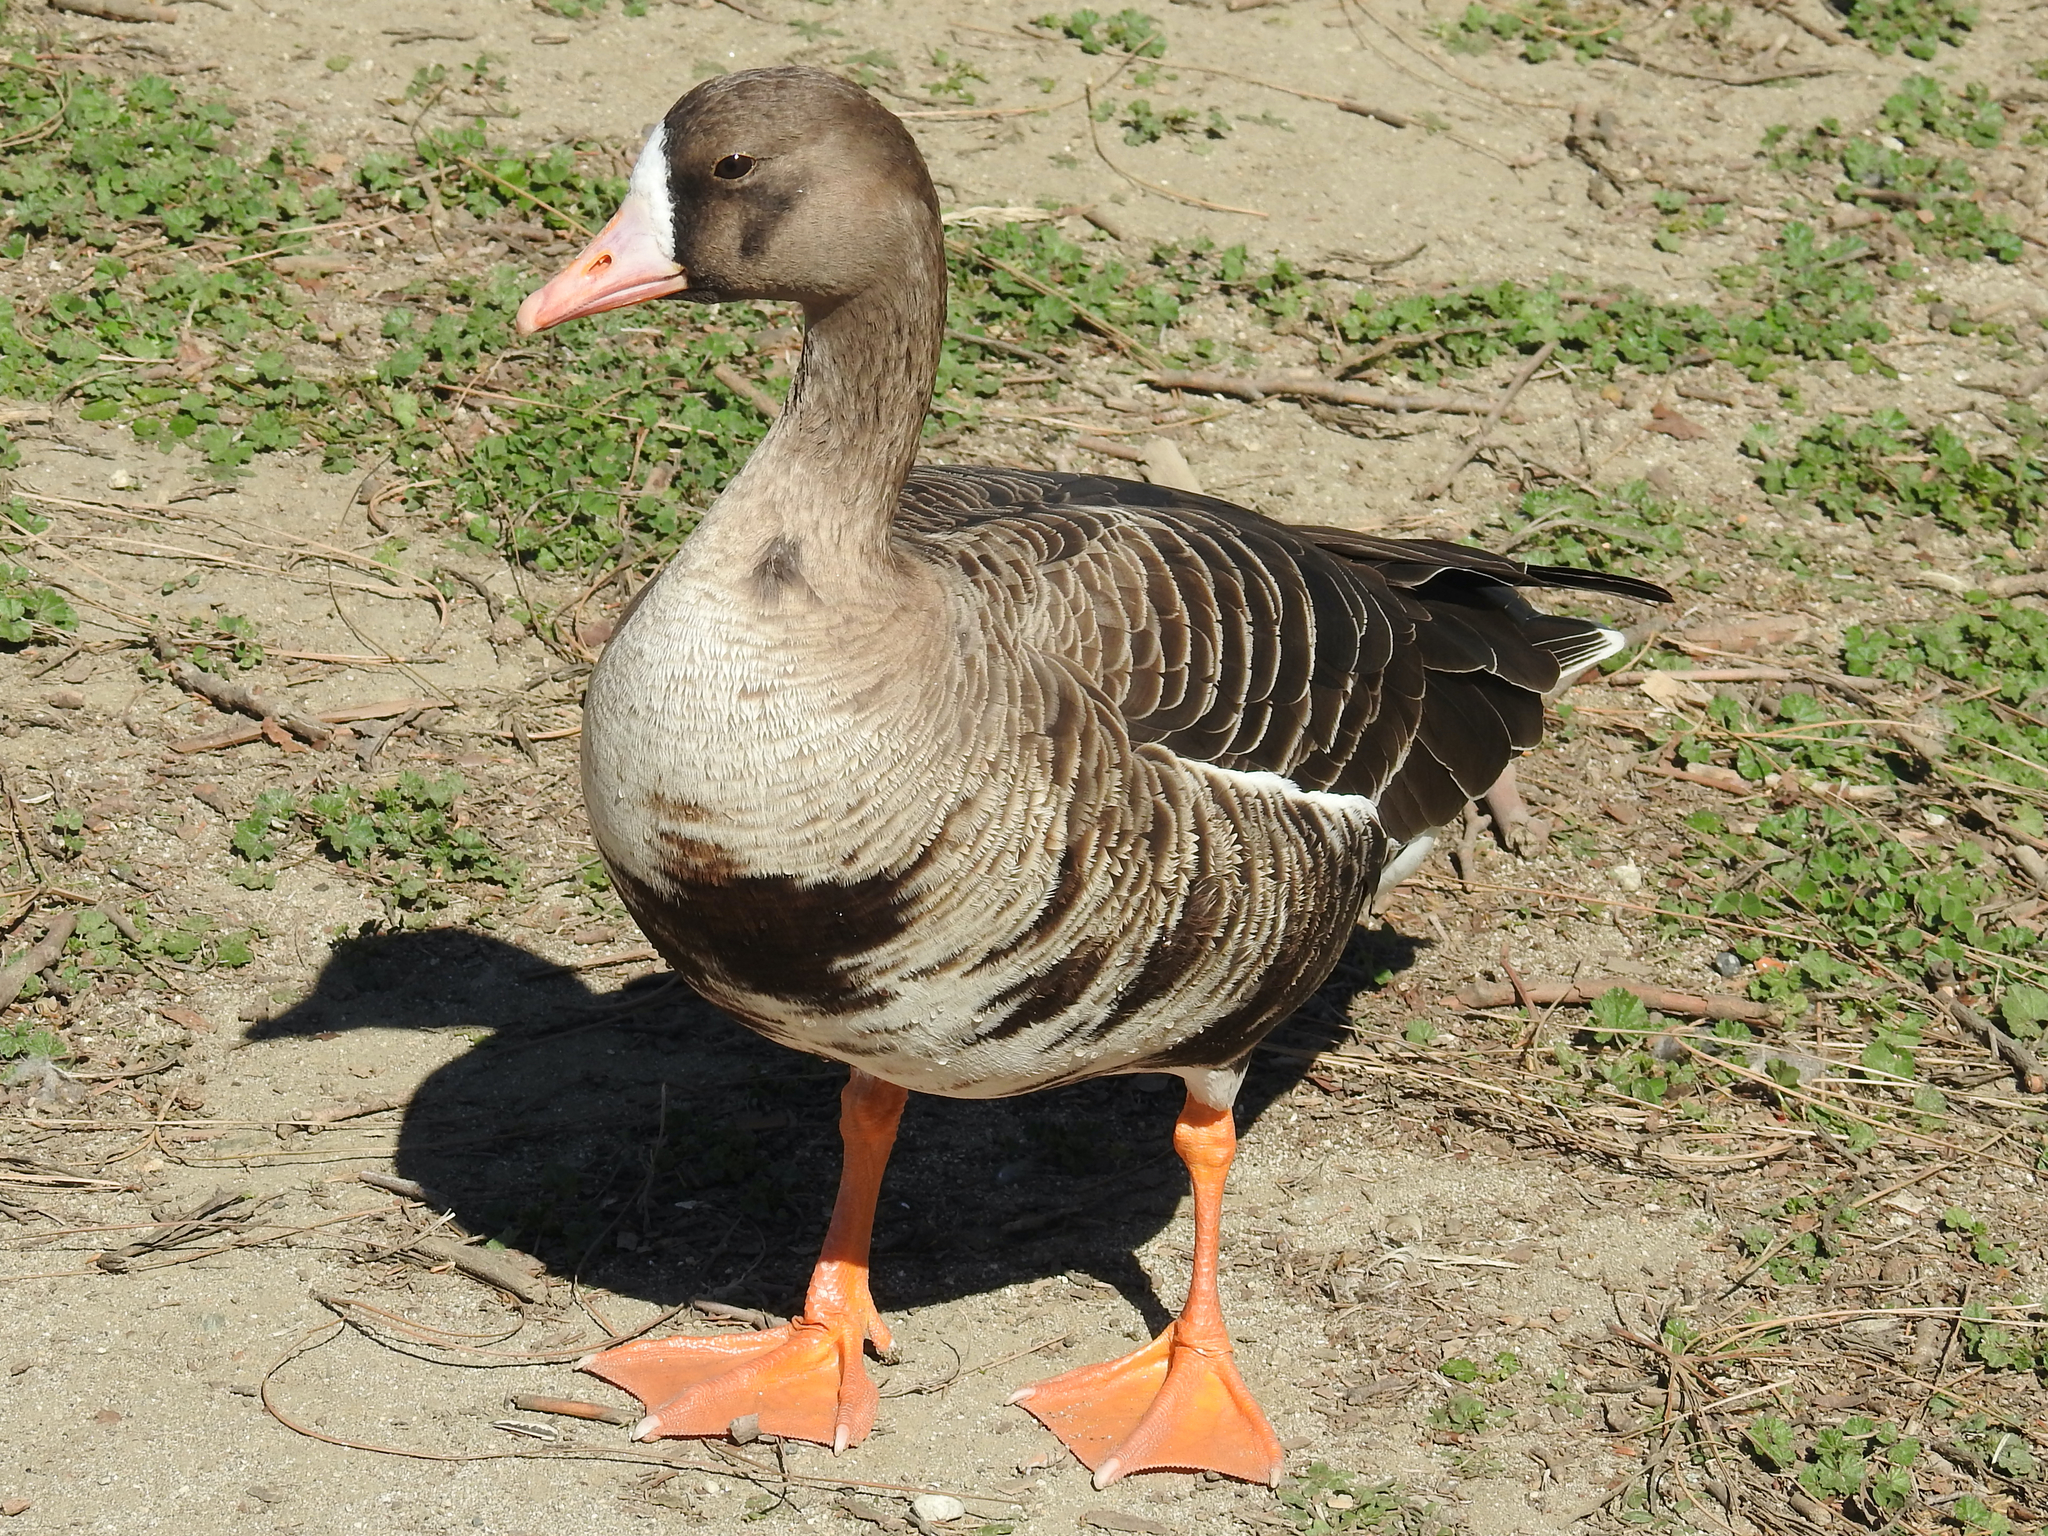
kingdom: Animalia
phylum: Chordata
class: Aves
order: Anseriformes
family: Anatidae
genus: Anser
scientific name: Anser albifrons
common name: Greater white-fronted goose
